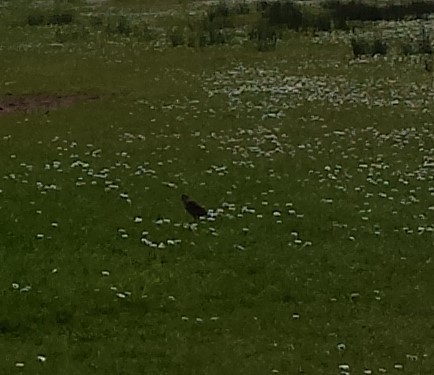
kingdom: Animalia
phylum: Chordata
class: Aves
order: Passeriformes
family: Turdidae
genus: Turdus
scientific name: Turdus philomelos
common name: Song thrush
